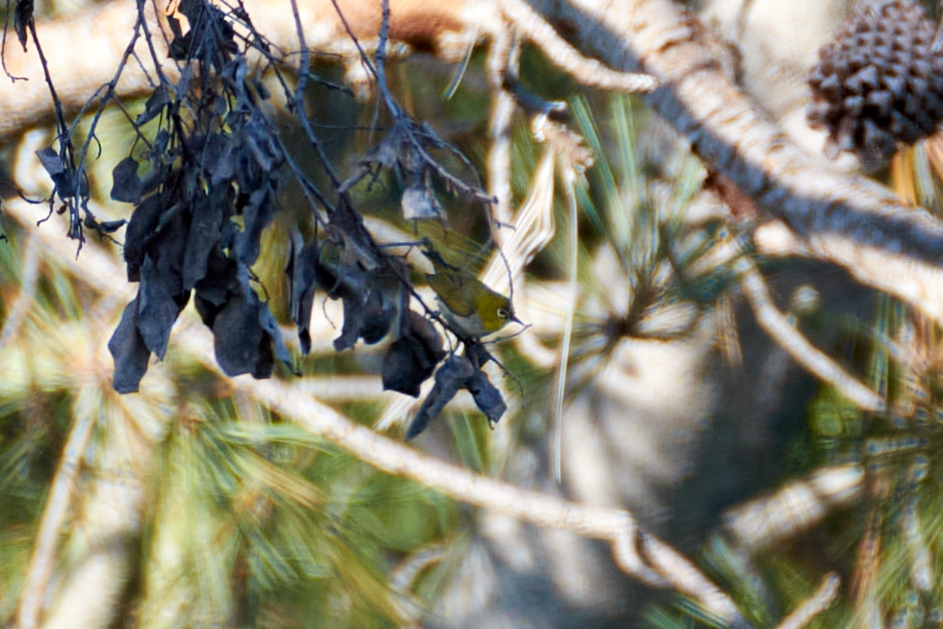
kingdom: Animalia
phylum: Chordata
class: Aves
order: Passeriformes
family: Zosteropidae
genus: Zosterops
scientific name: Zosterops simplex
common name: Swinhoe's white-eye
